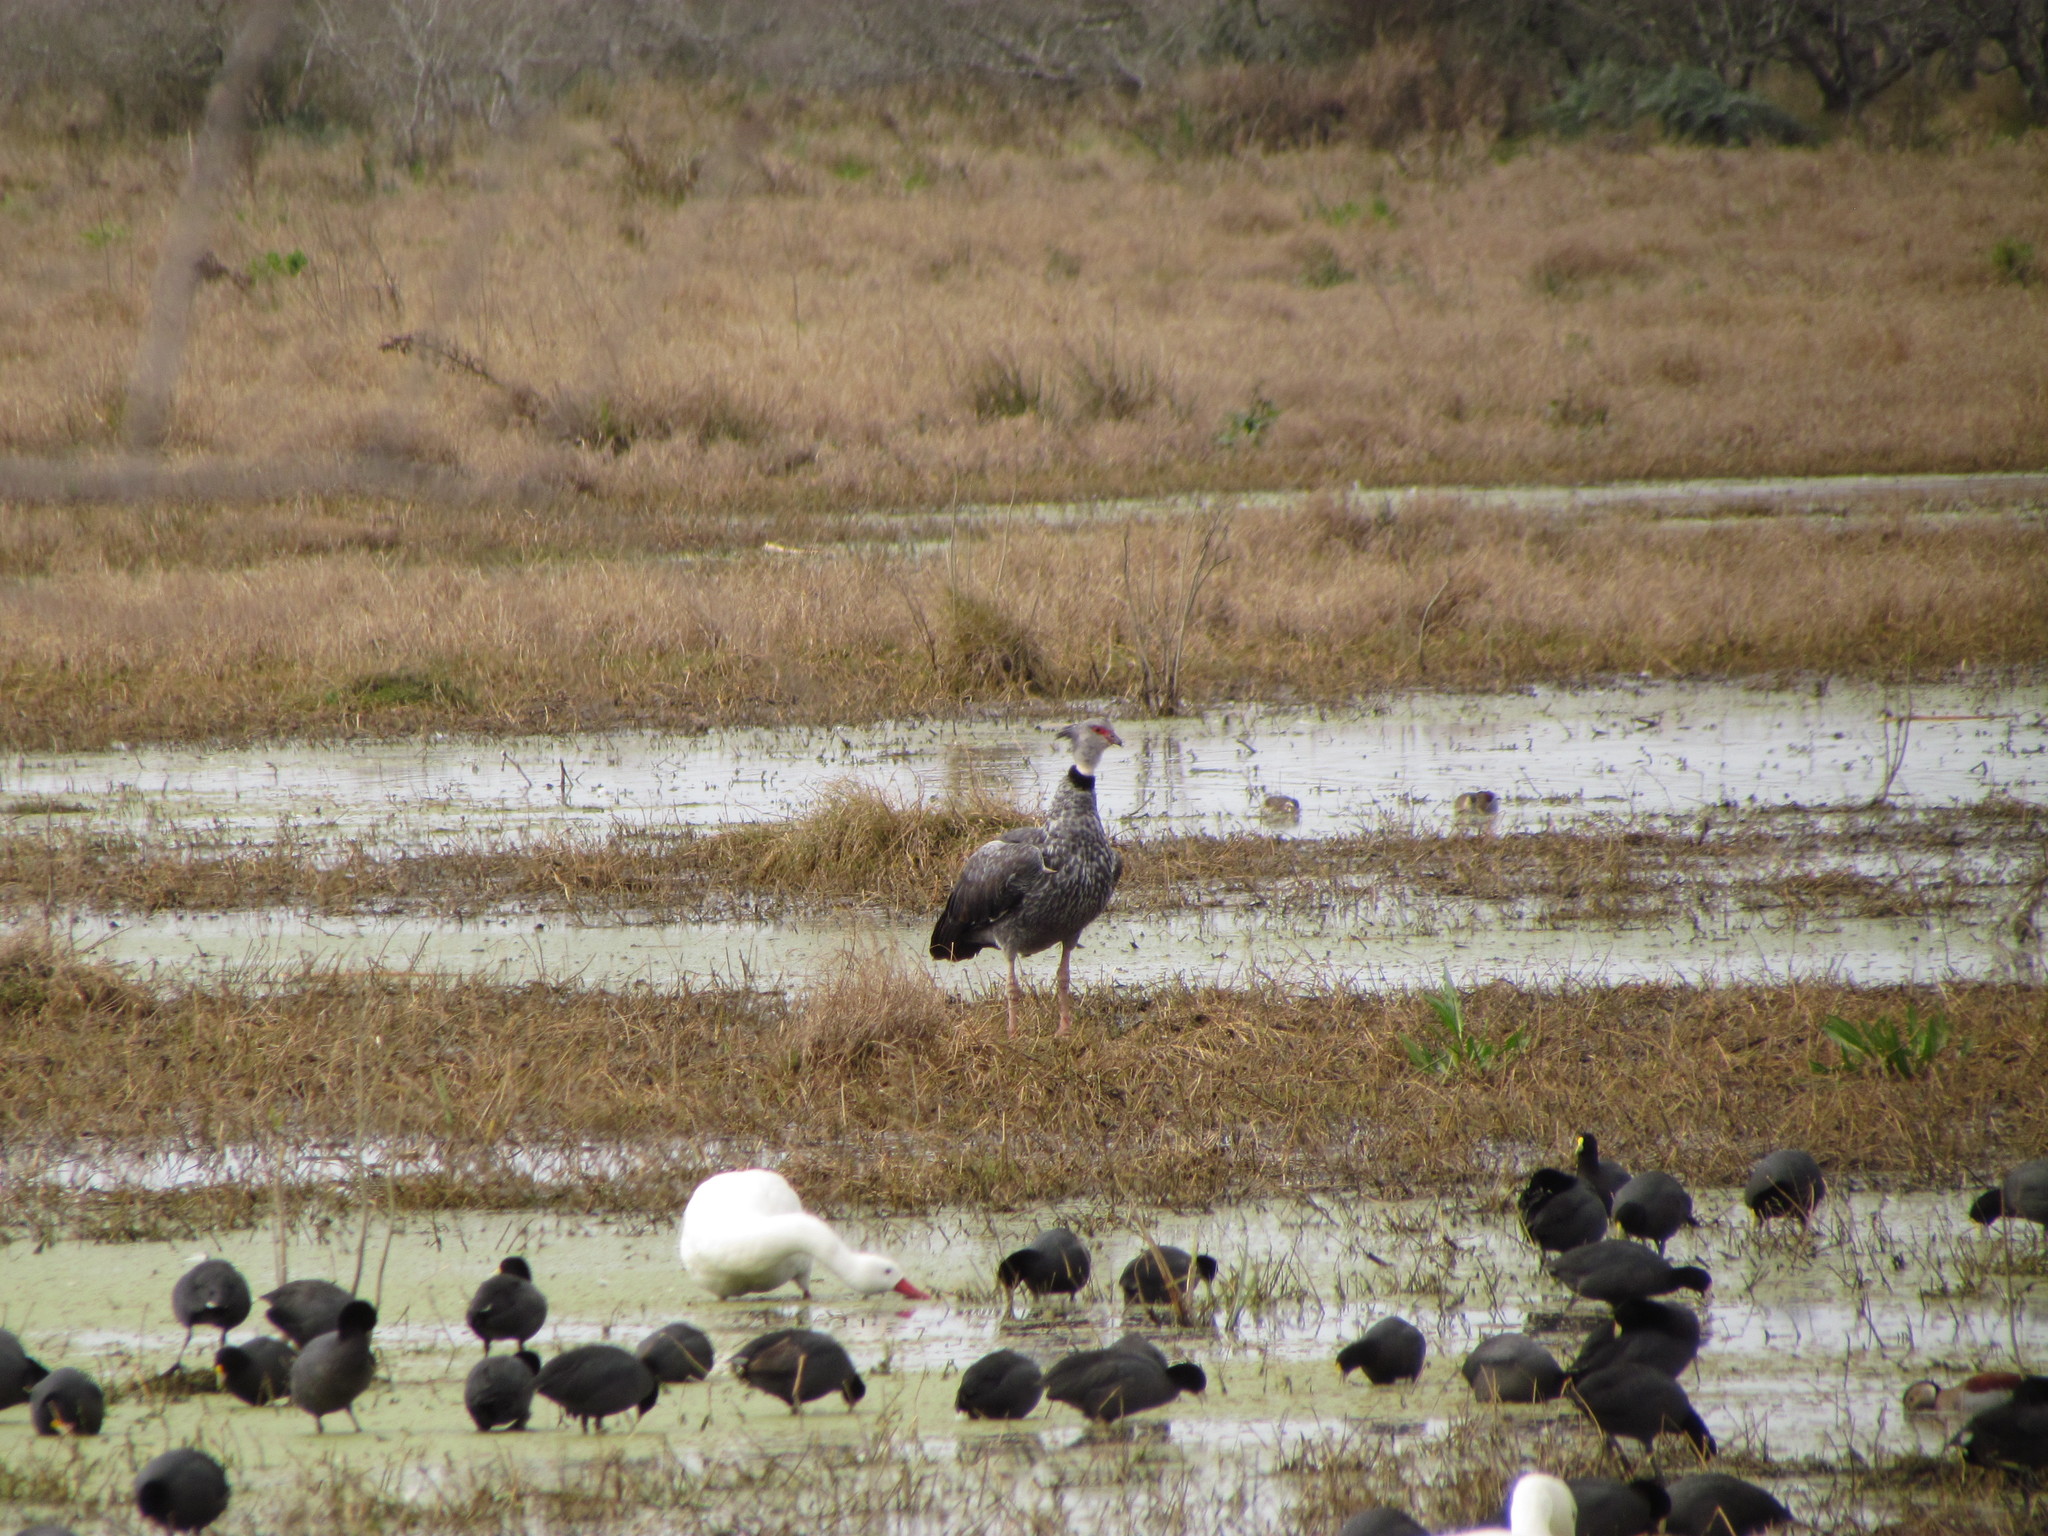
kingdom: Animalia
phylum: Chordata
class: Aves
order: Anseriformes
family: Anhimidae
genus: Chauna
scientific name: Chauna torquata
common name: Southern screamer
